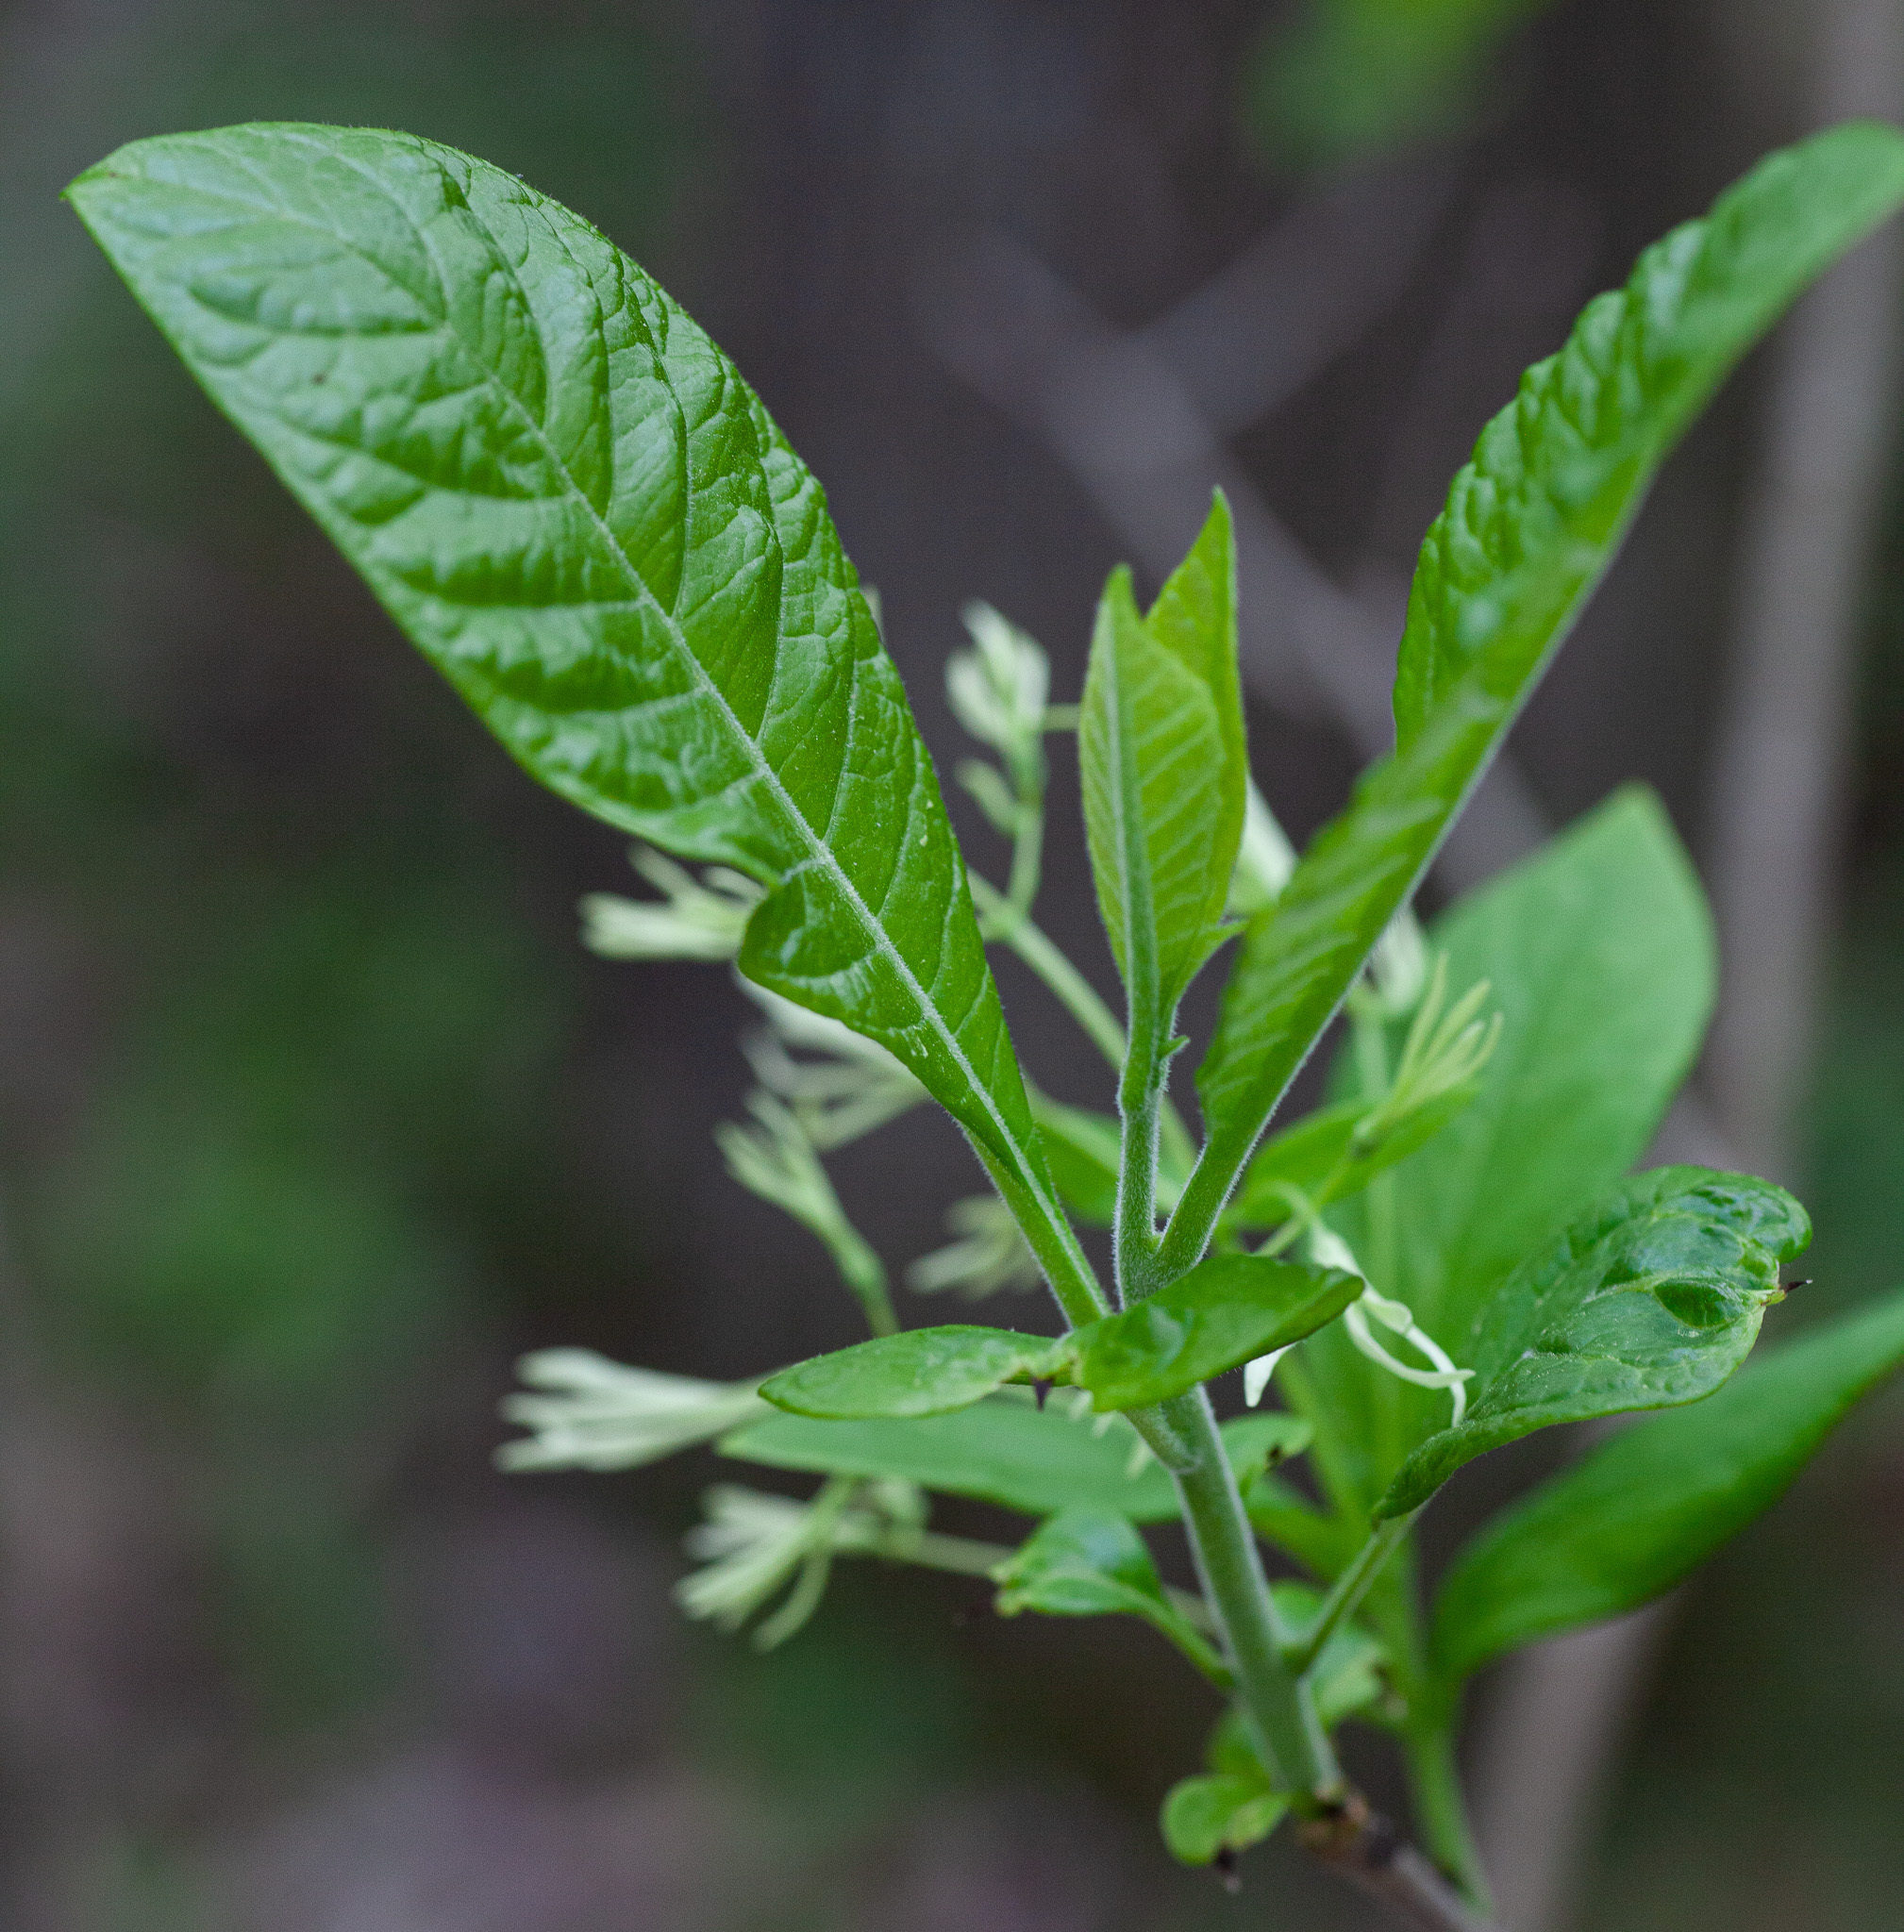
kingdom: Plantae
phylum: Tracheophyta
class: Magnoliopsida
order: Lamiales
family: Oleaceae
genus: Chionanthus
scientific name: Chionanthus virginicus
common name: American fringetree
